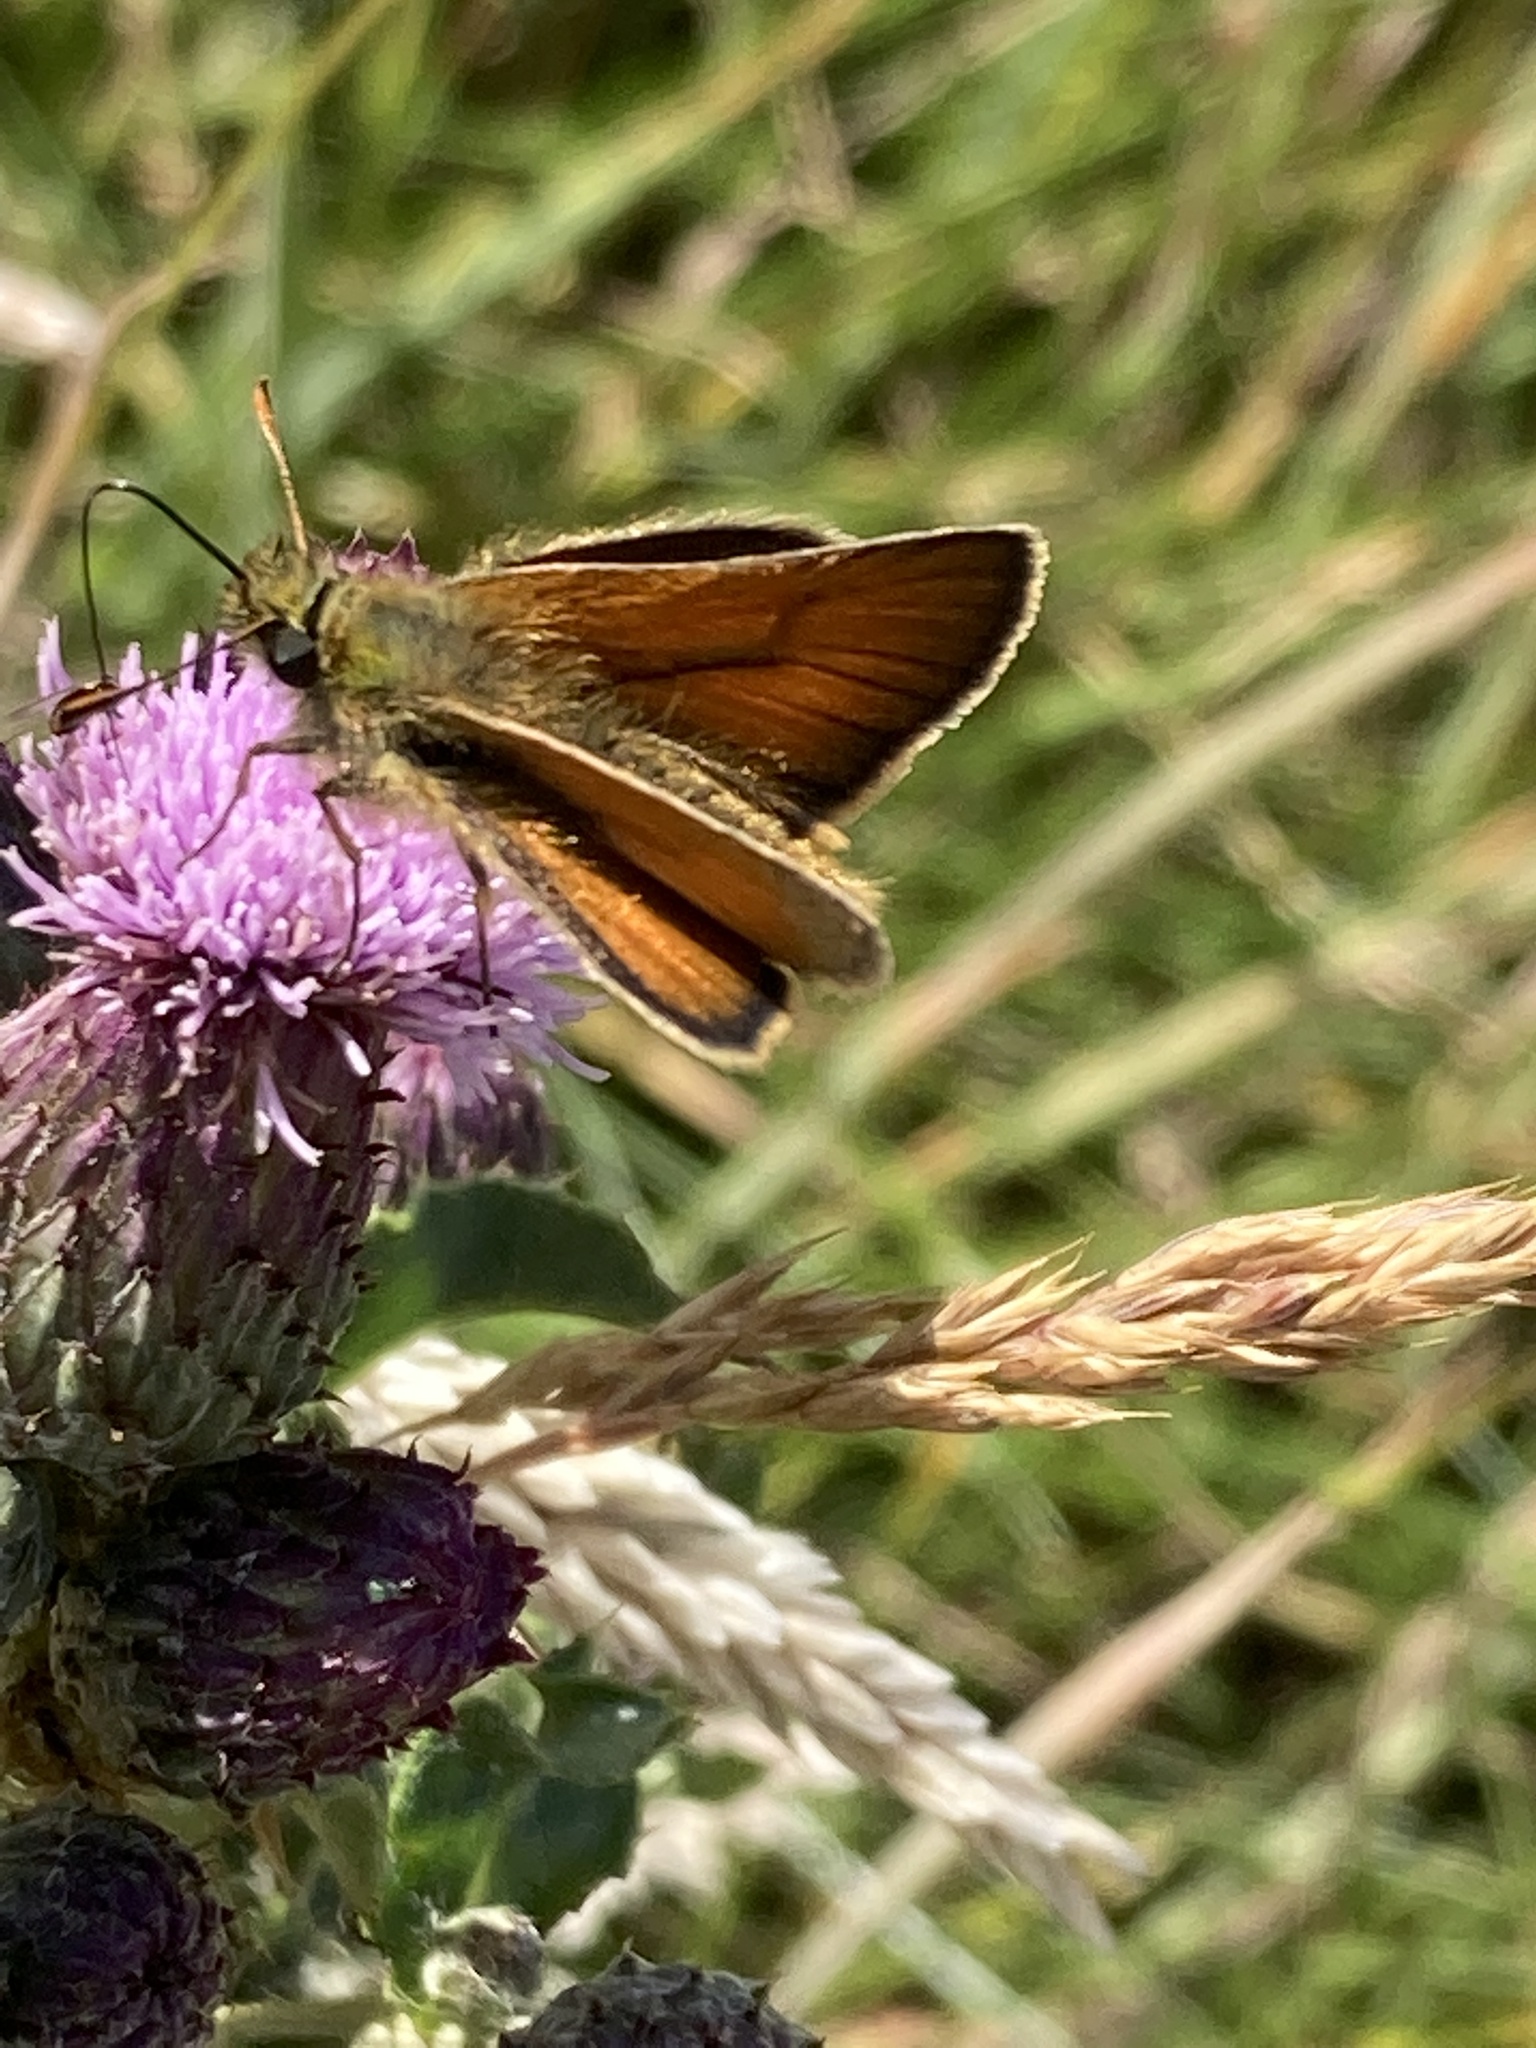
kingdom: Animalia
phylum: Arthropoda
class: Insecta
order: Lepidoptera
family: Hesperiidae
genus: Thymelicus
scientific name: Thymelicus sylvestris
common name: Small skipper
